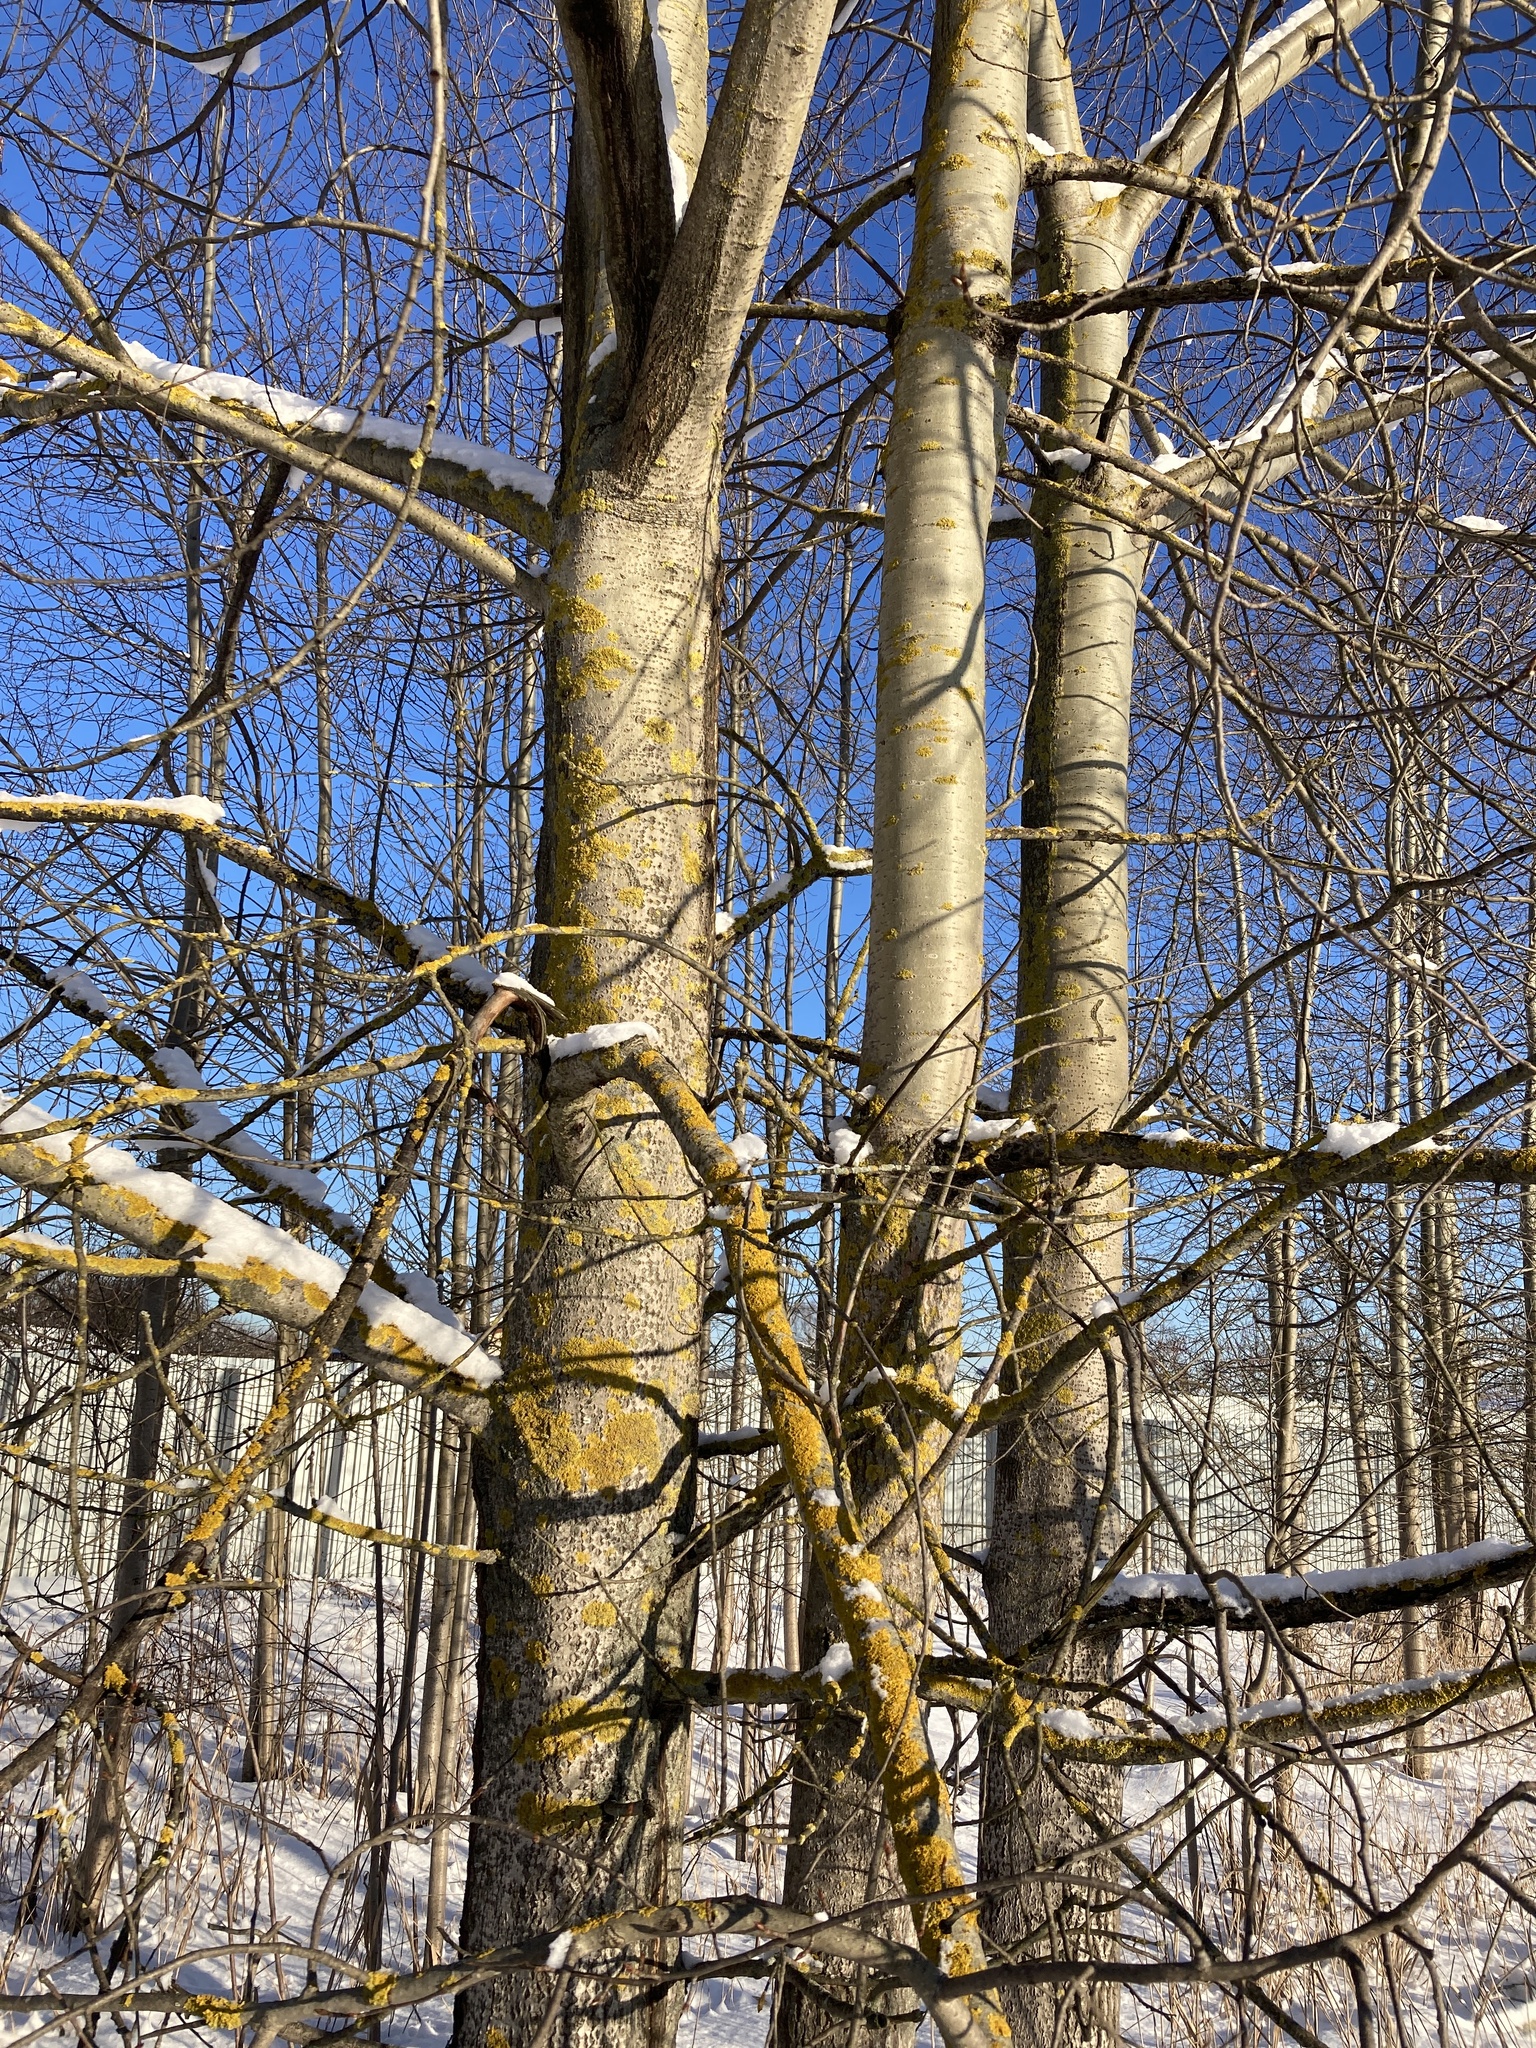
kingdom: Plantae
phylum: Tracheophyta
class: Magnoliopsida
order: Malpighiales
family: Salicaceae
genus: Populus
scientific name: Populus tremula
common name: European aspen
